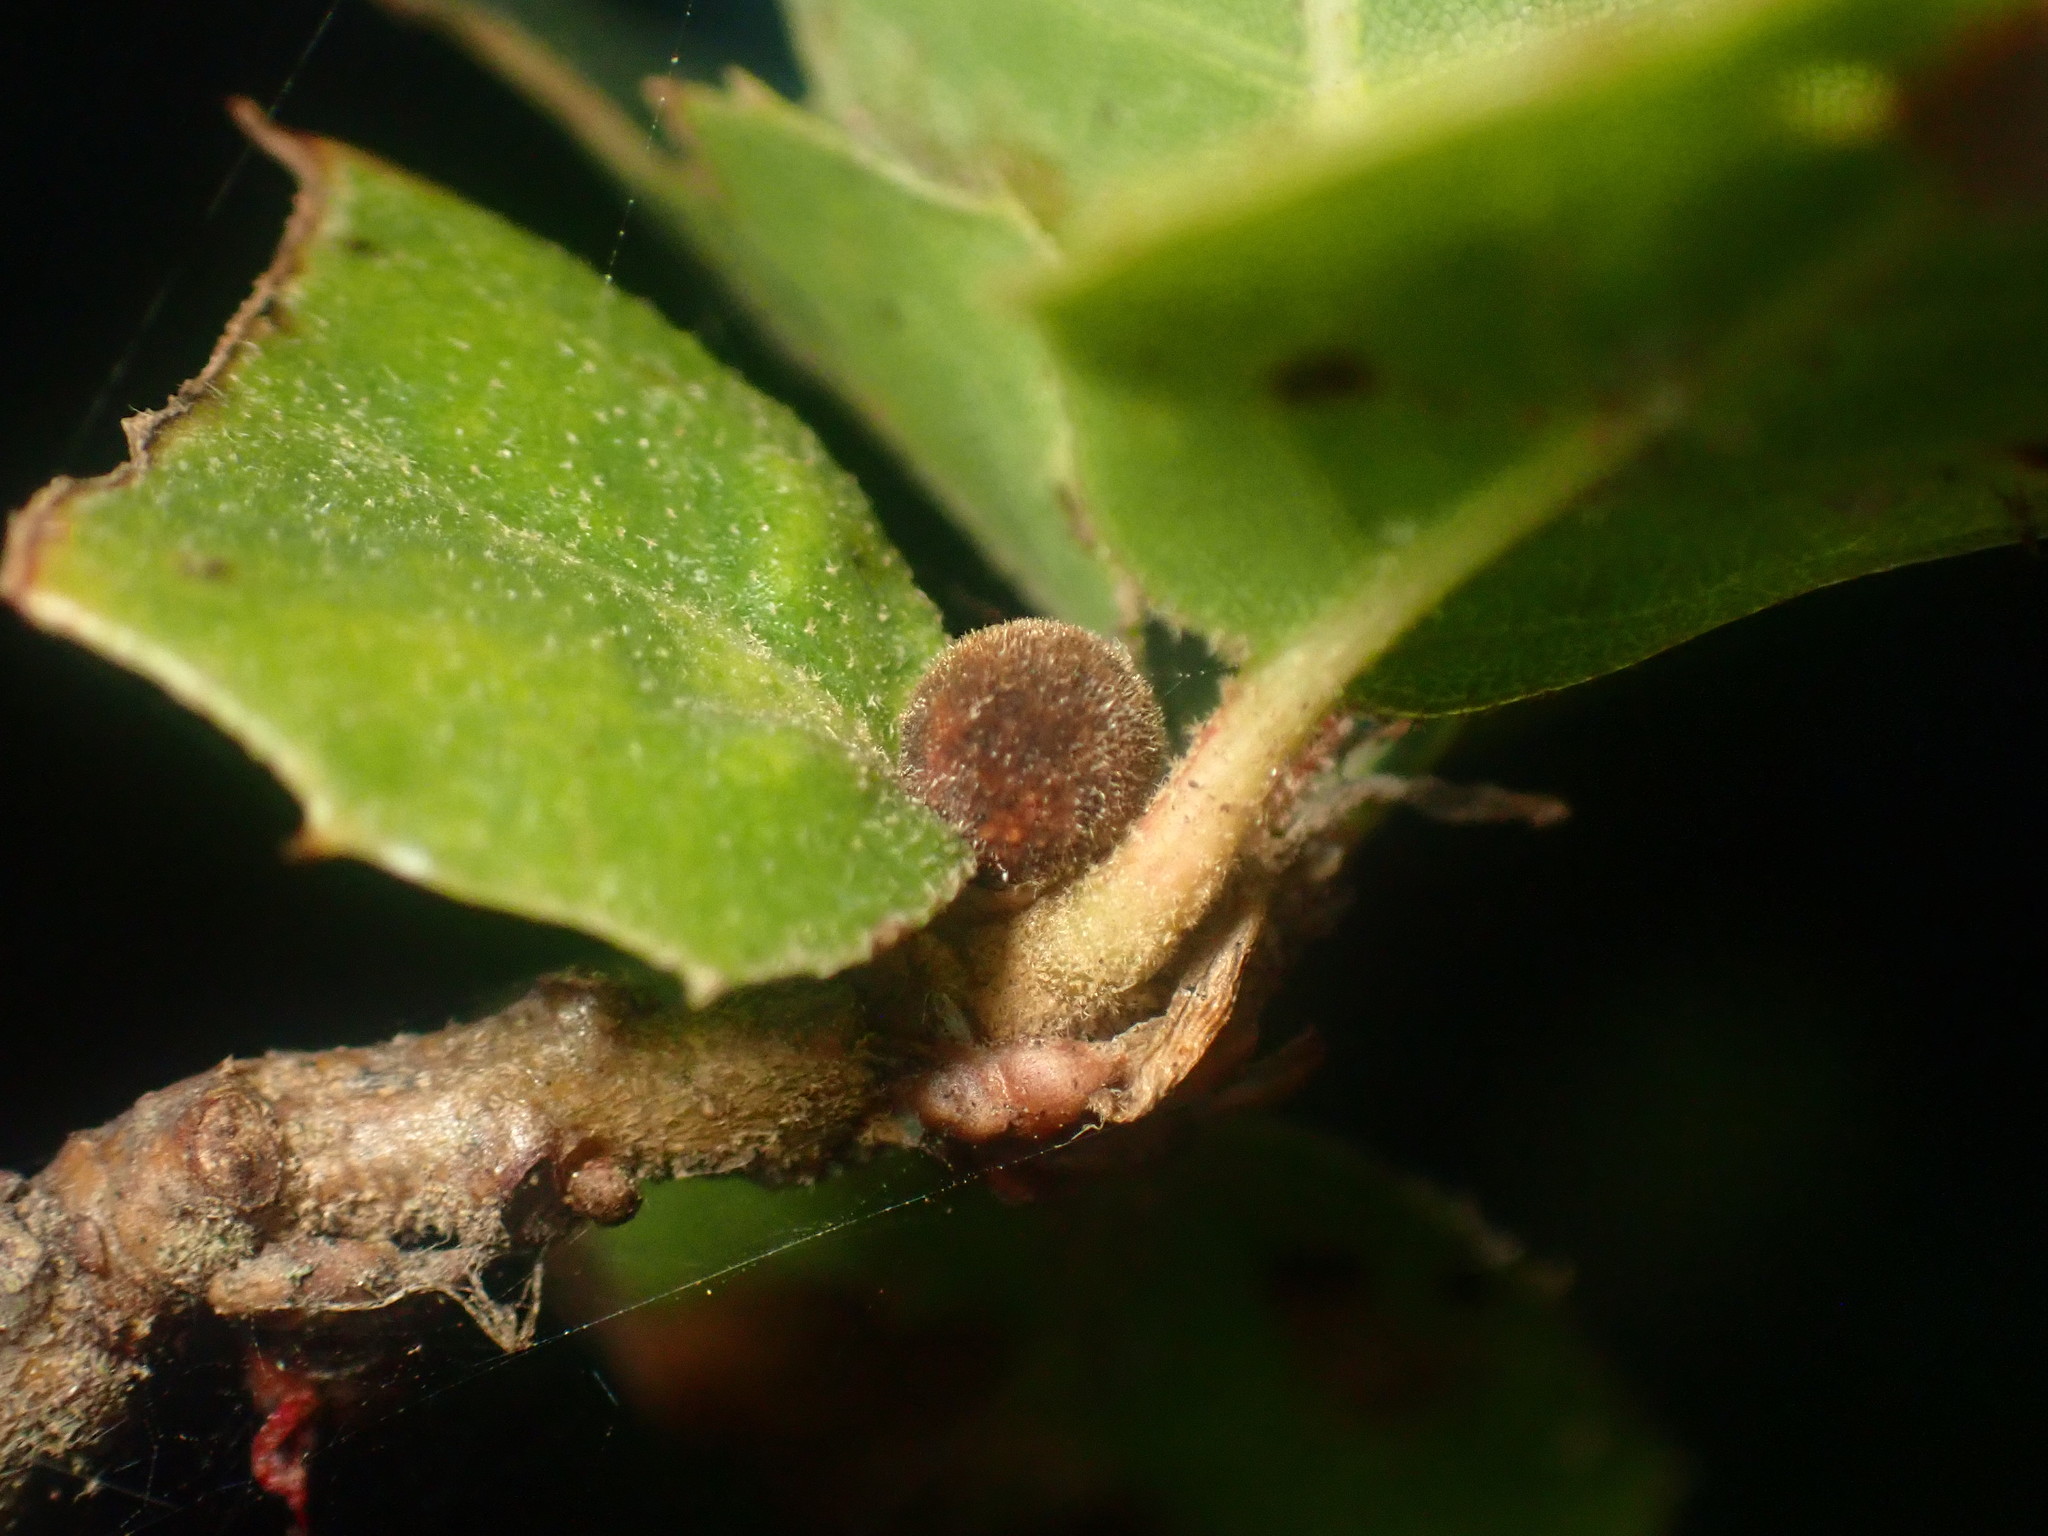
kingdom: Animalia
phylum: Arthropoda
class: Insecta
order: Hymenoptera
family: Cynipidae
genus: Callirhytis
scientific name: Callirhytis
